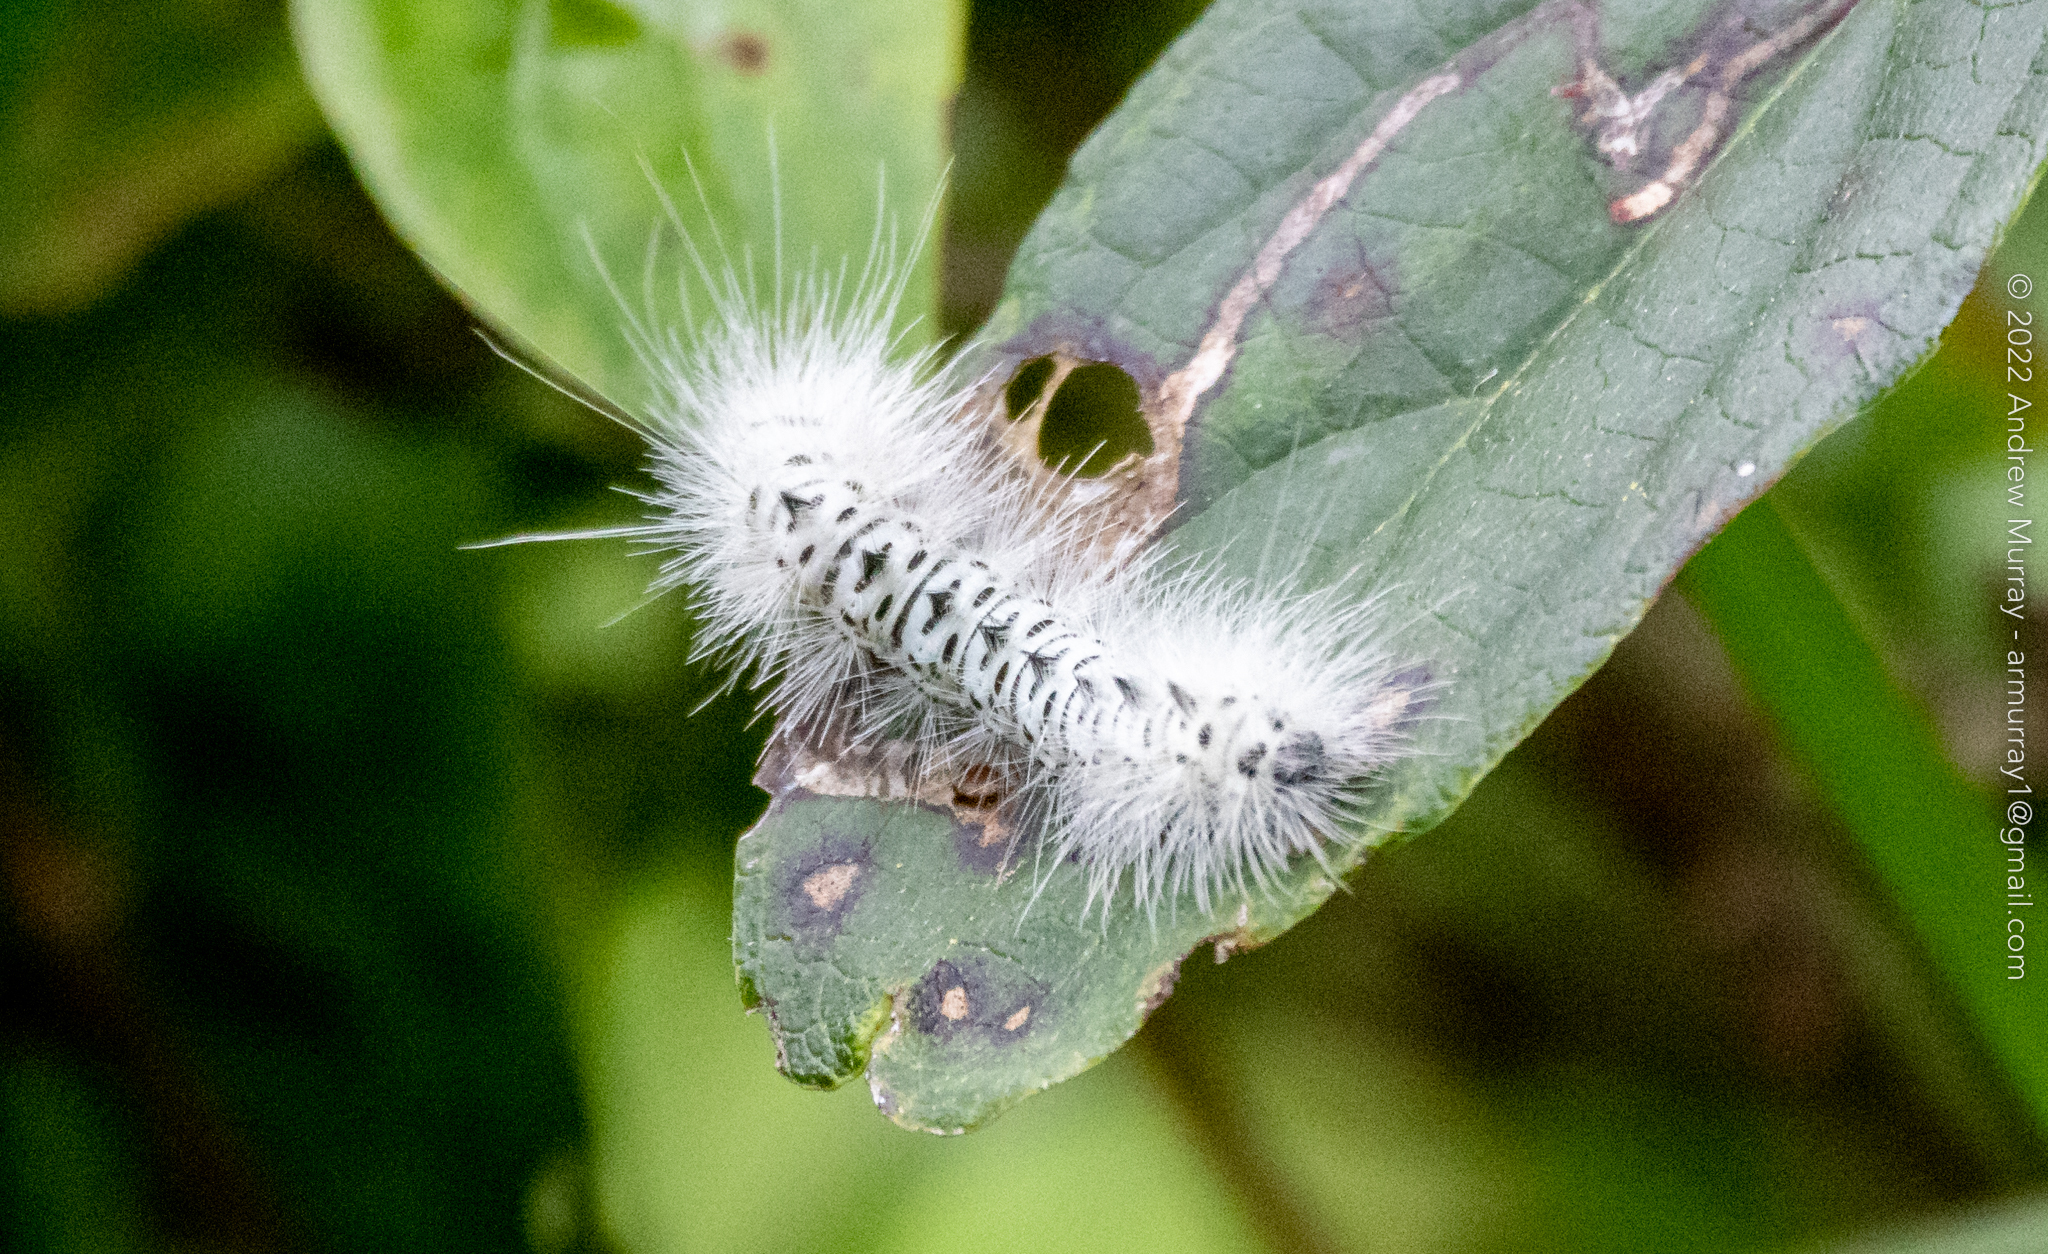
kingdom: Animalia
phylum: Arthropoda
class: Insecta
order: Lepidoptera
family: Erebidae
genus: Lophocampa
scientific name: Lophocampa caryae
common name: Hickory tussock moth
